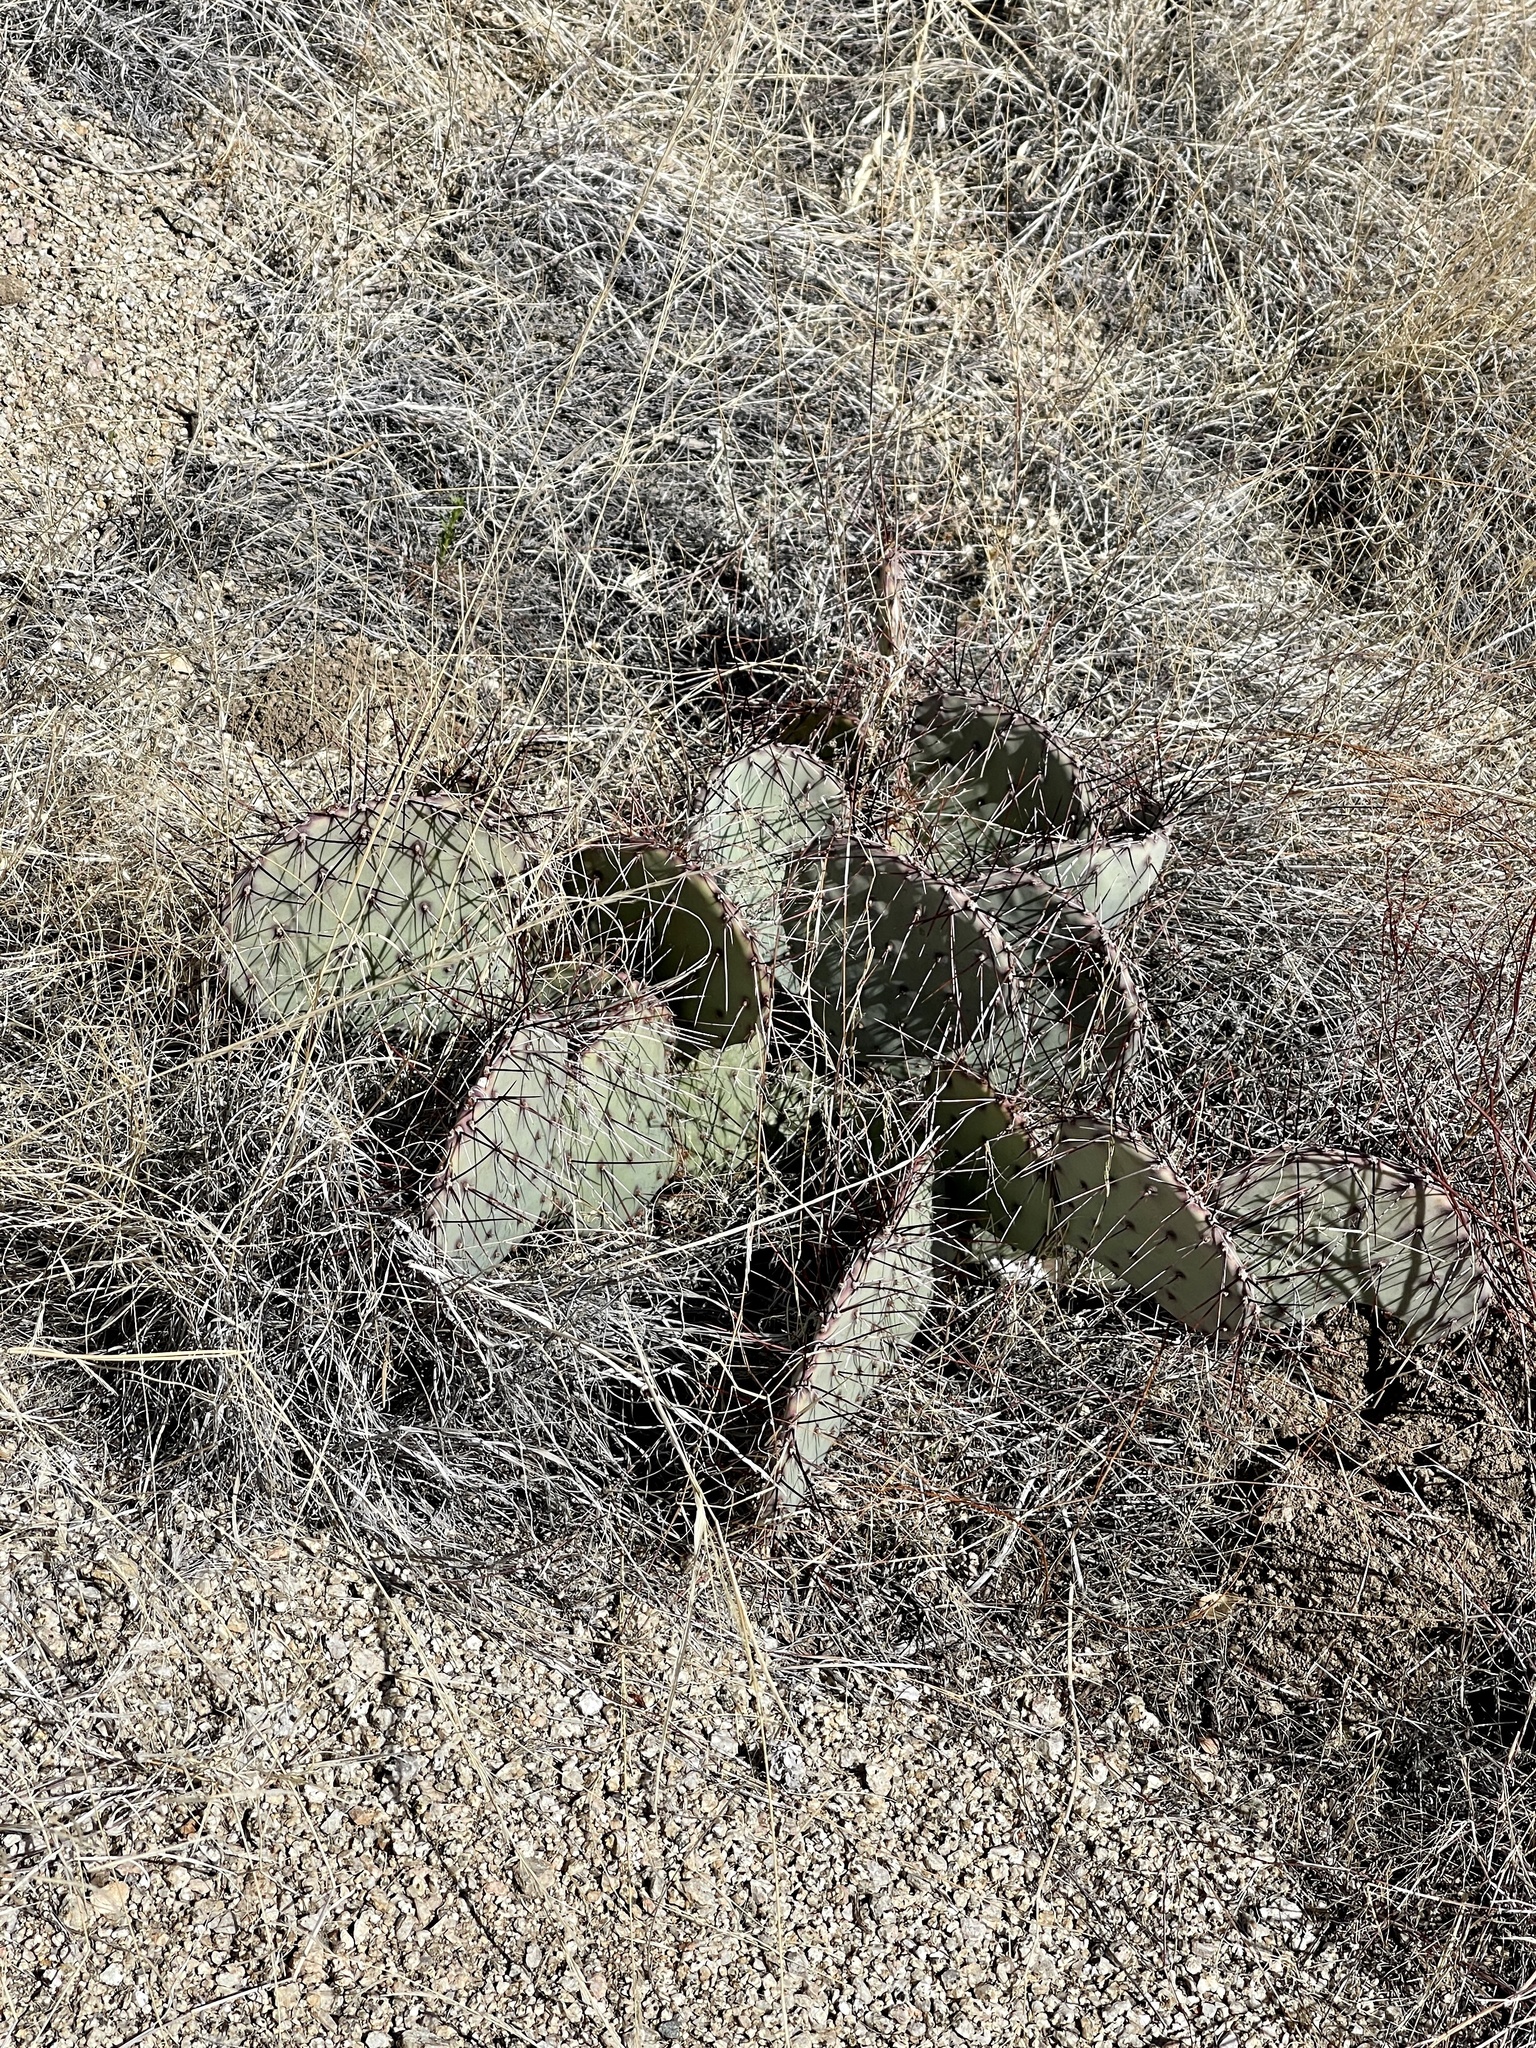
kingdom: Plantae
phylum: Tracheophyta
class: Magnoliopsida
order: Caryophyllales
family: Cactaceae
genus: Opuntia
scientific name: Opuntia phaeacantha
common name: New mexico prickly-pear
